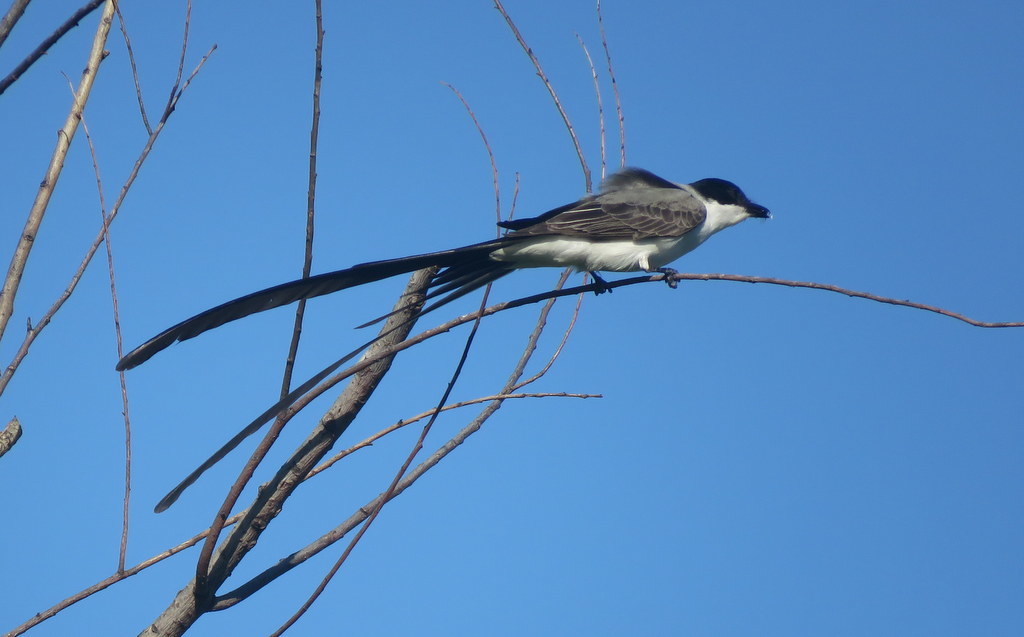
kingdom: Animalia
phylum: Chordata
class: Aves
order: Passeriformes
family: Tyrannidae
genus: Tyrannus
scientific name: Tyrannus savana
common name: Fork-tailed flycatcher
